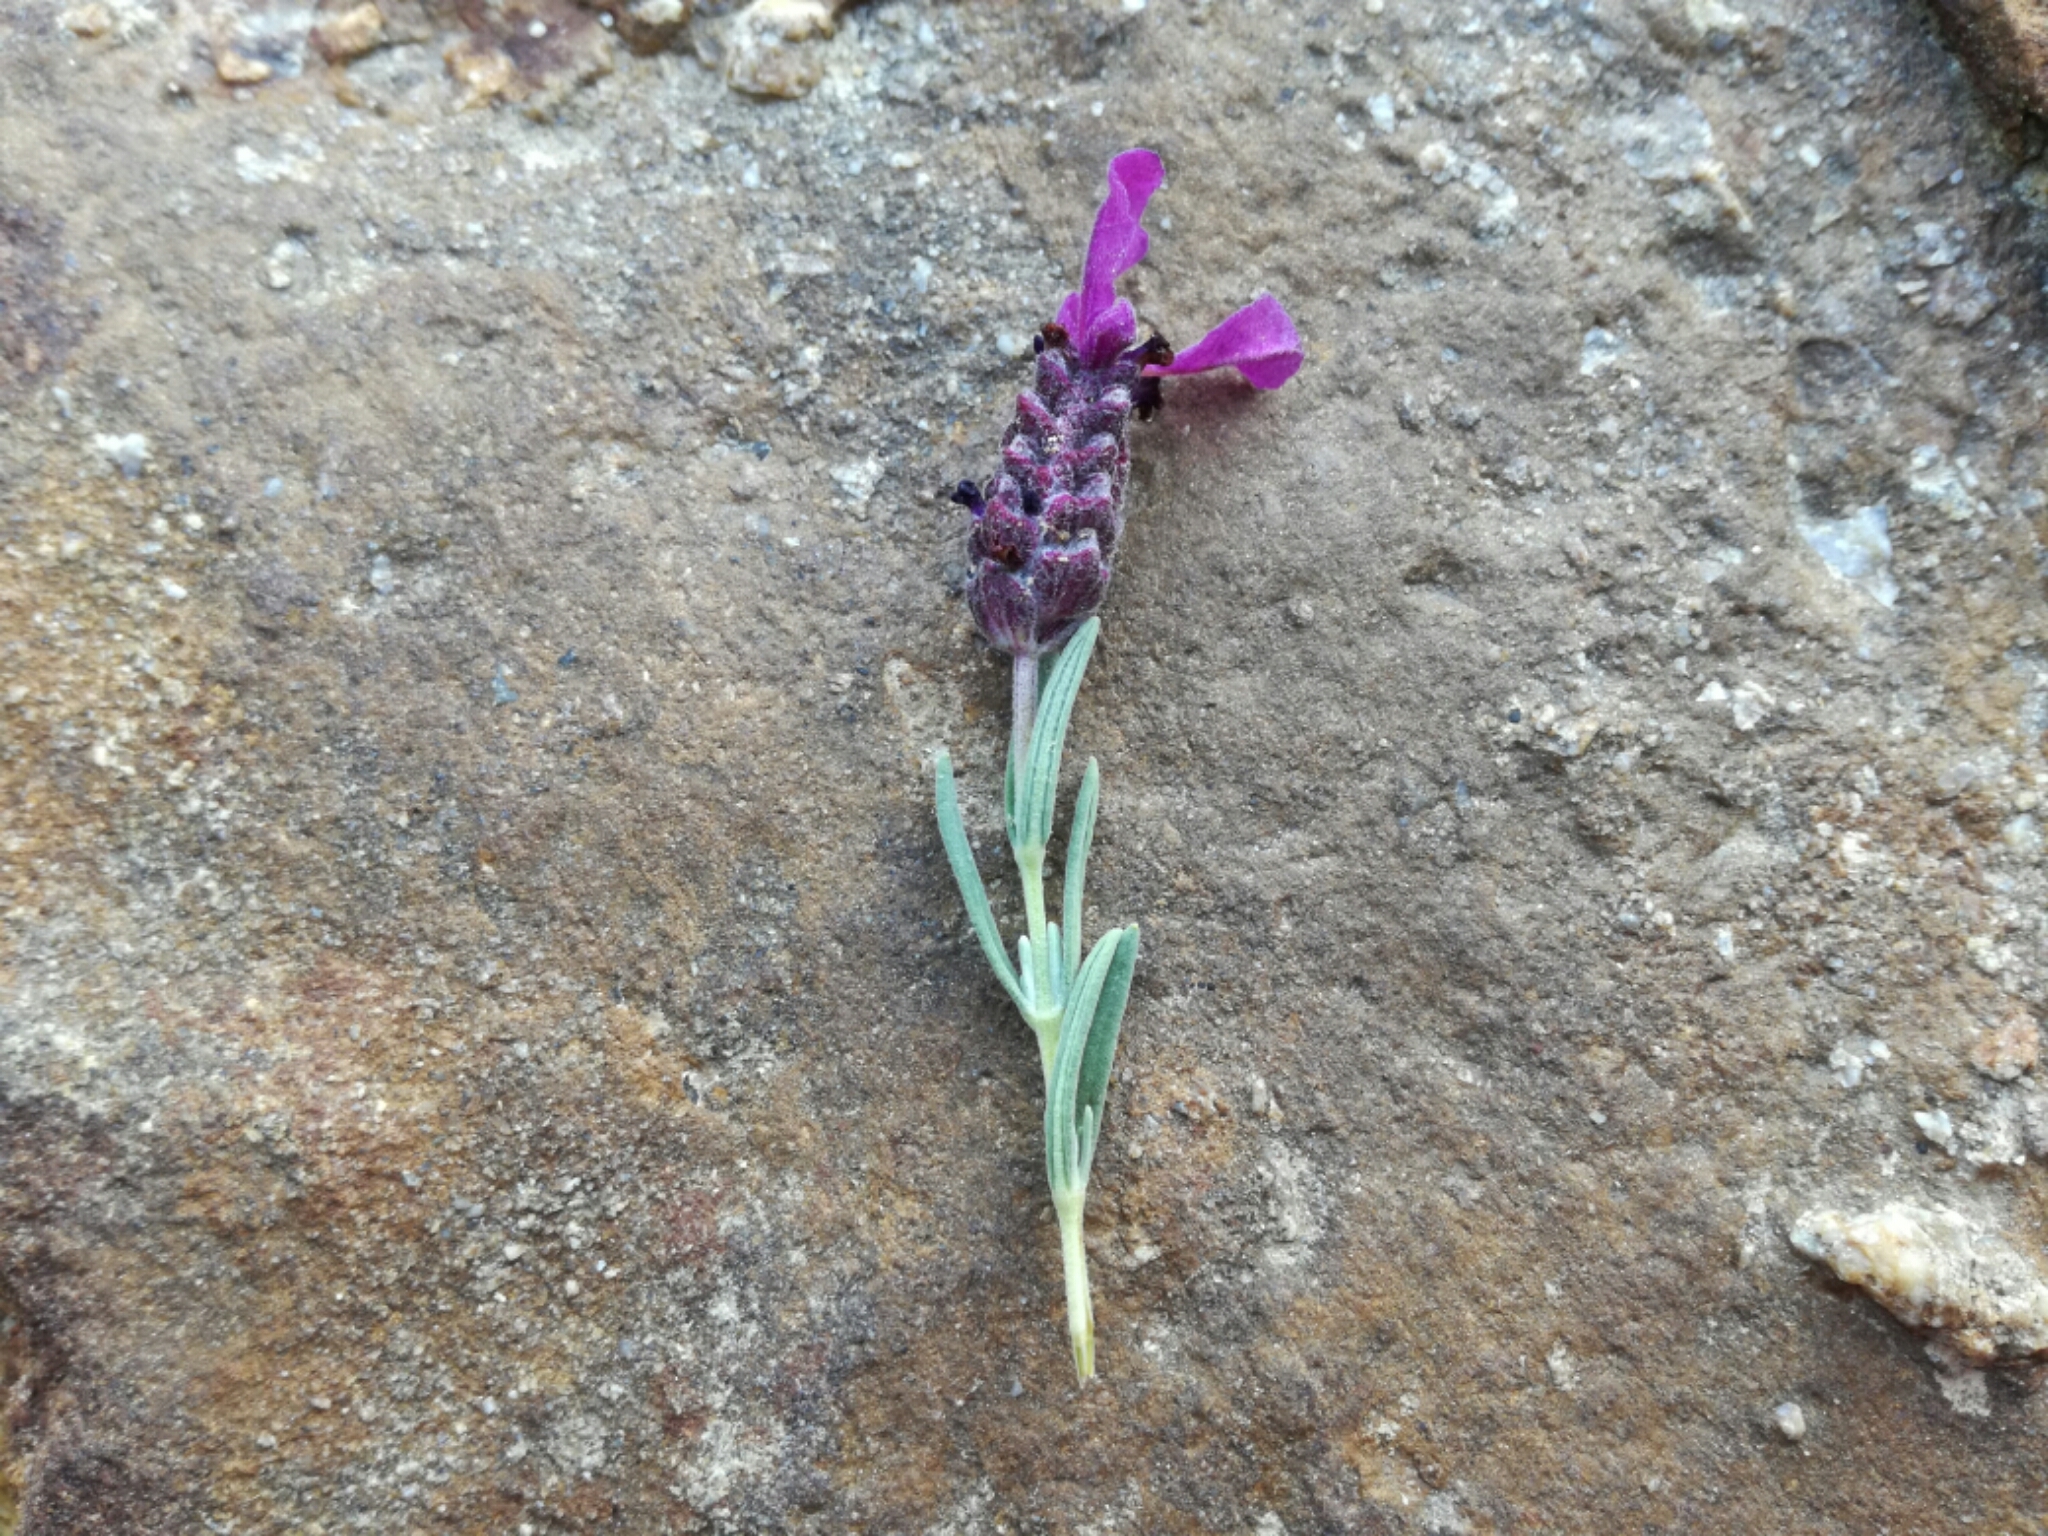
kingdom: Plantae
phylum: Tracheophyta
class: Magnoliopsida
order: Lamiales
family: Lamiaceae
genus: Lavandula
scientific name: Lavandula stoechas
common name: French lavender
